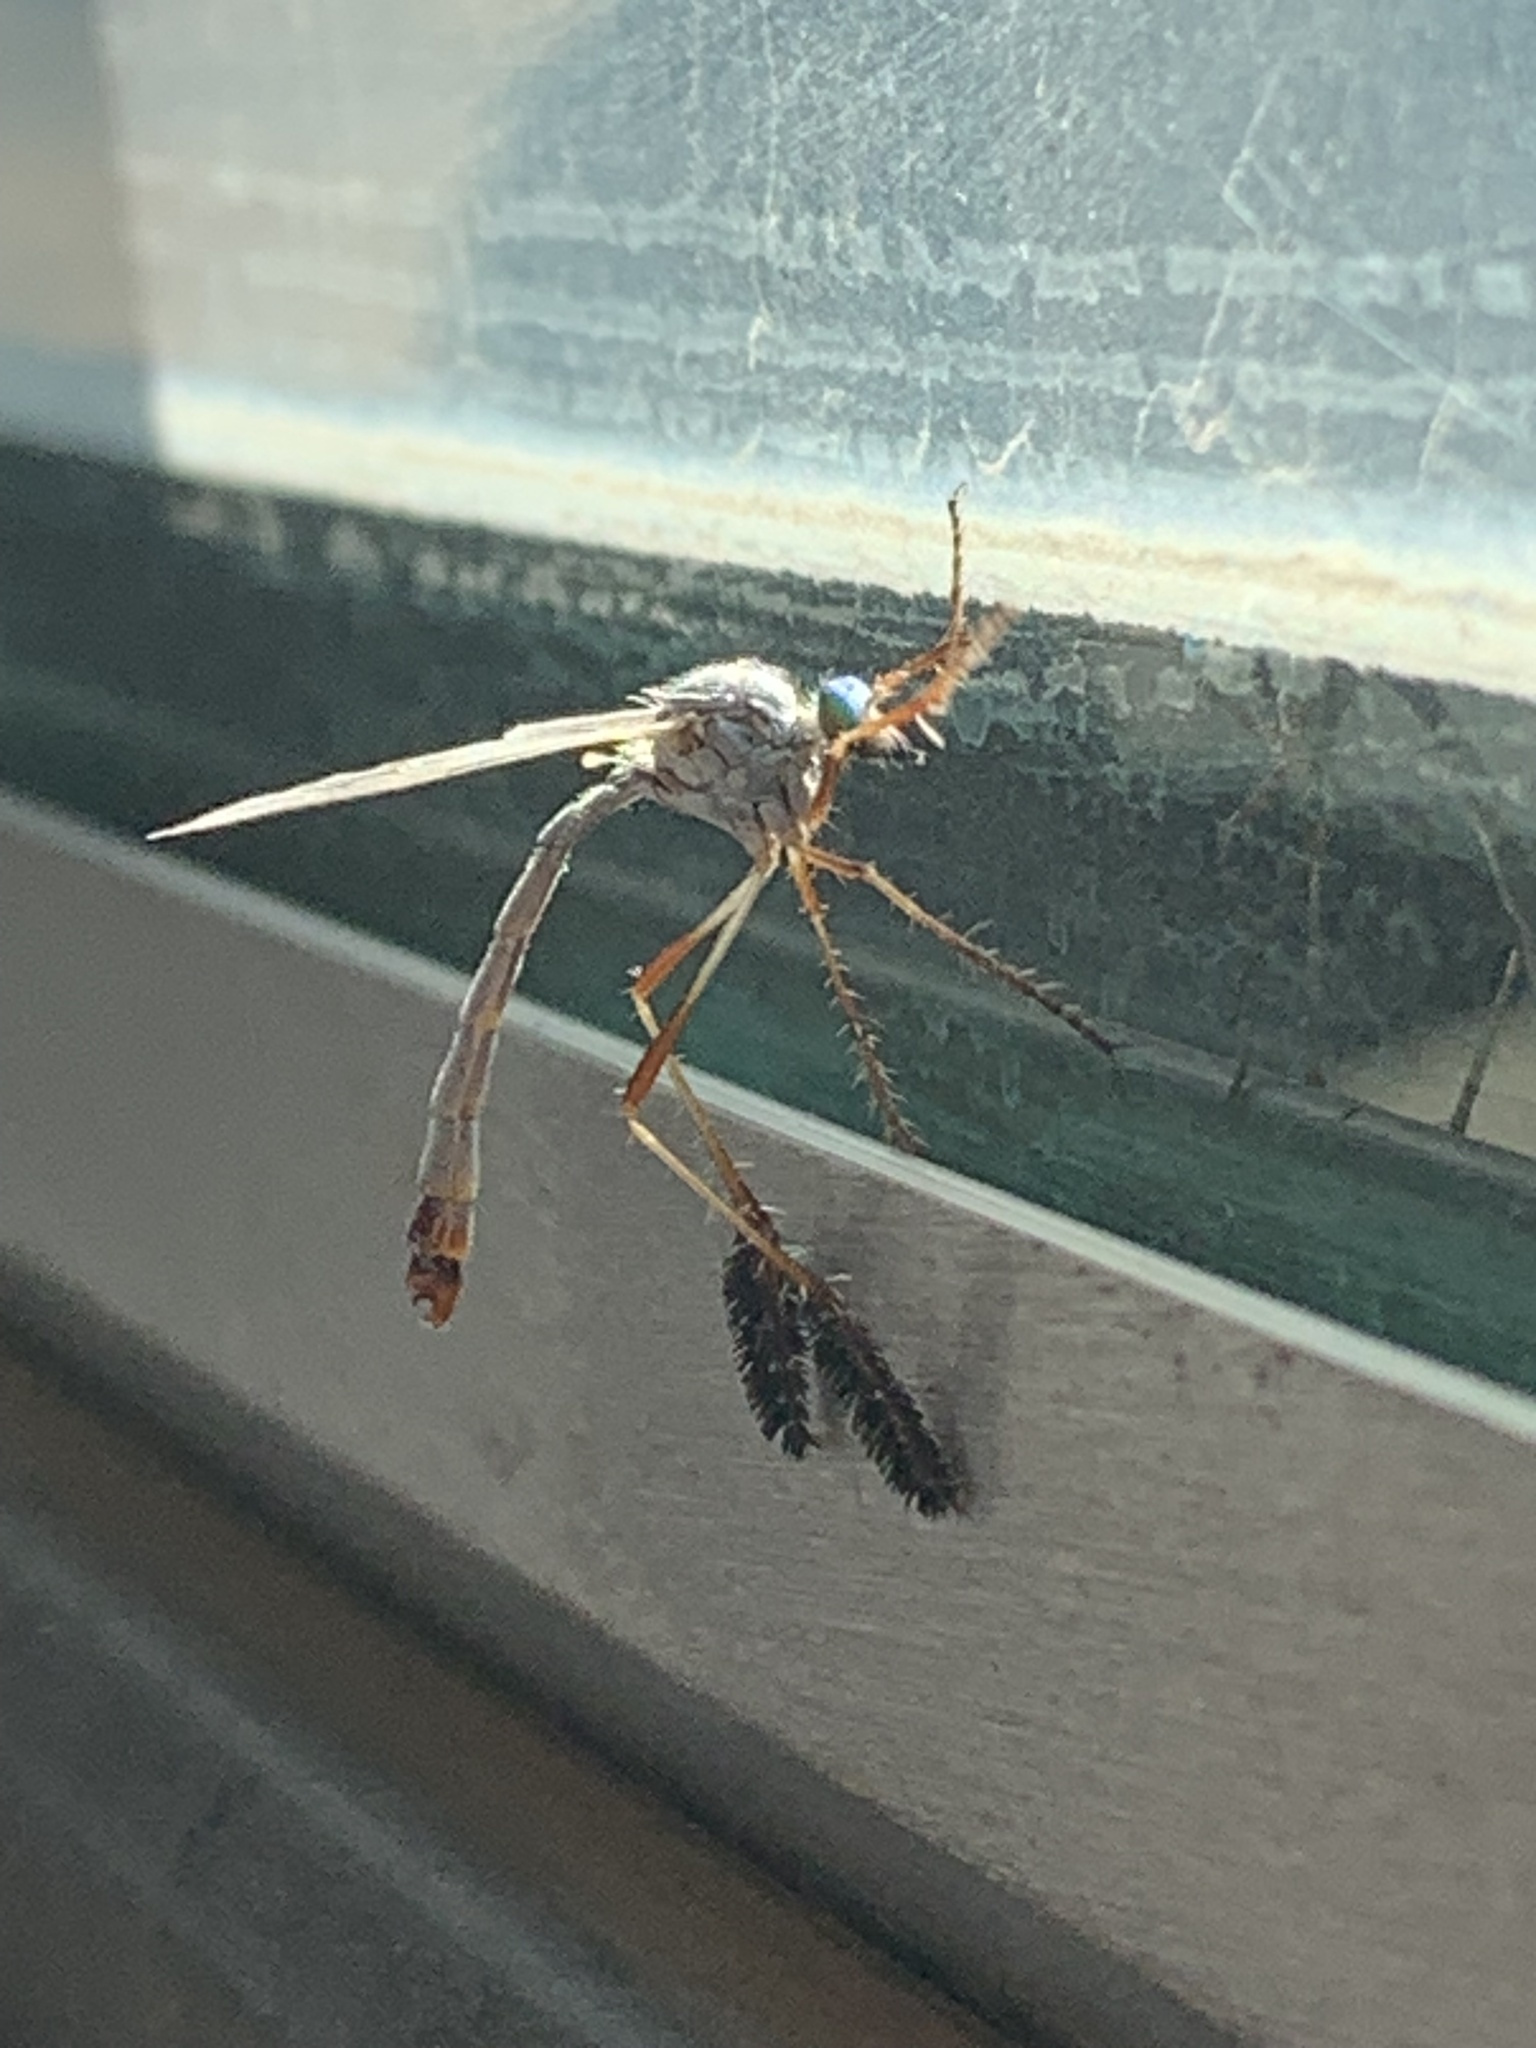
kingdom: Animalia
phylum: Arthropoda
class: Insecta
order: Diptera
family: Asilidae
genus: Pegesimallus
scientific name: Pegesimallus albidipennis
